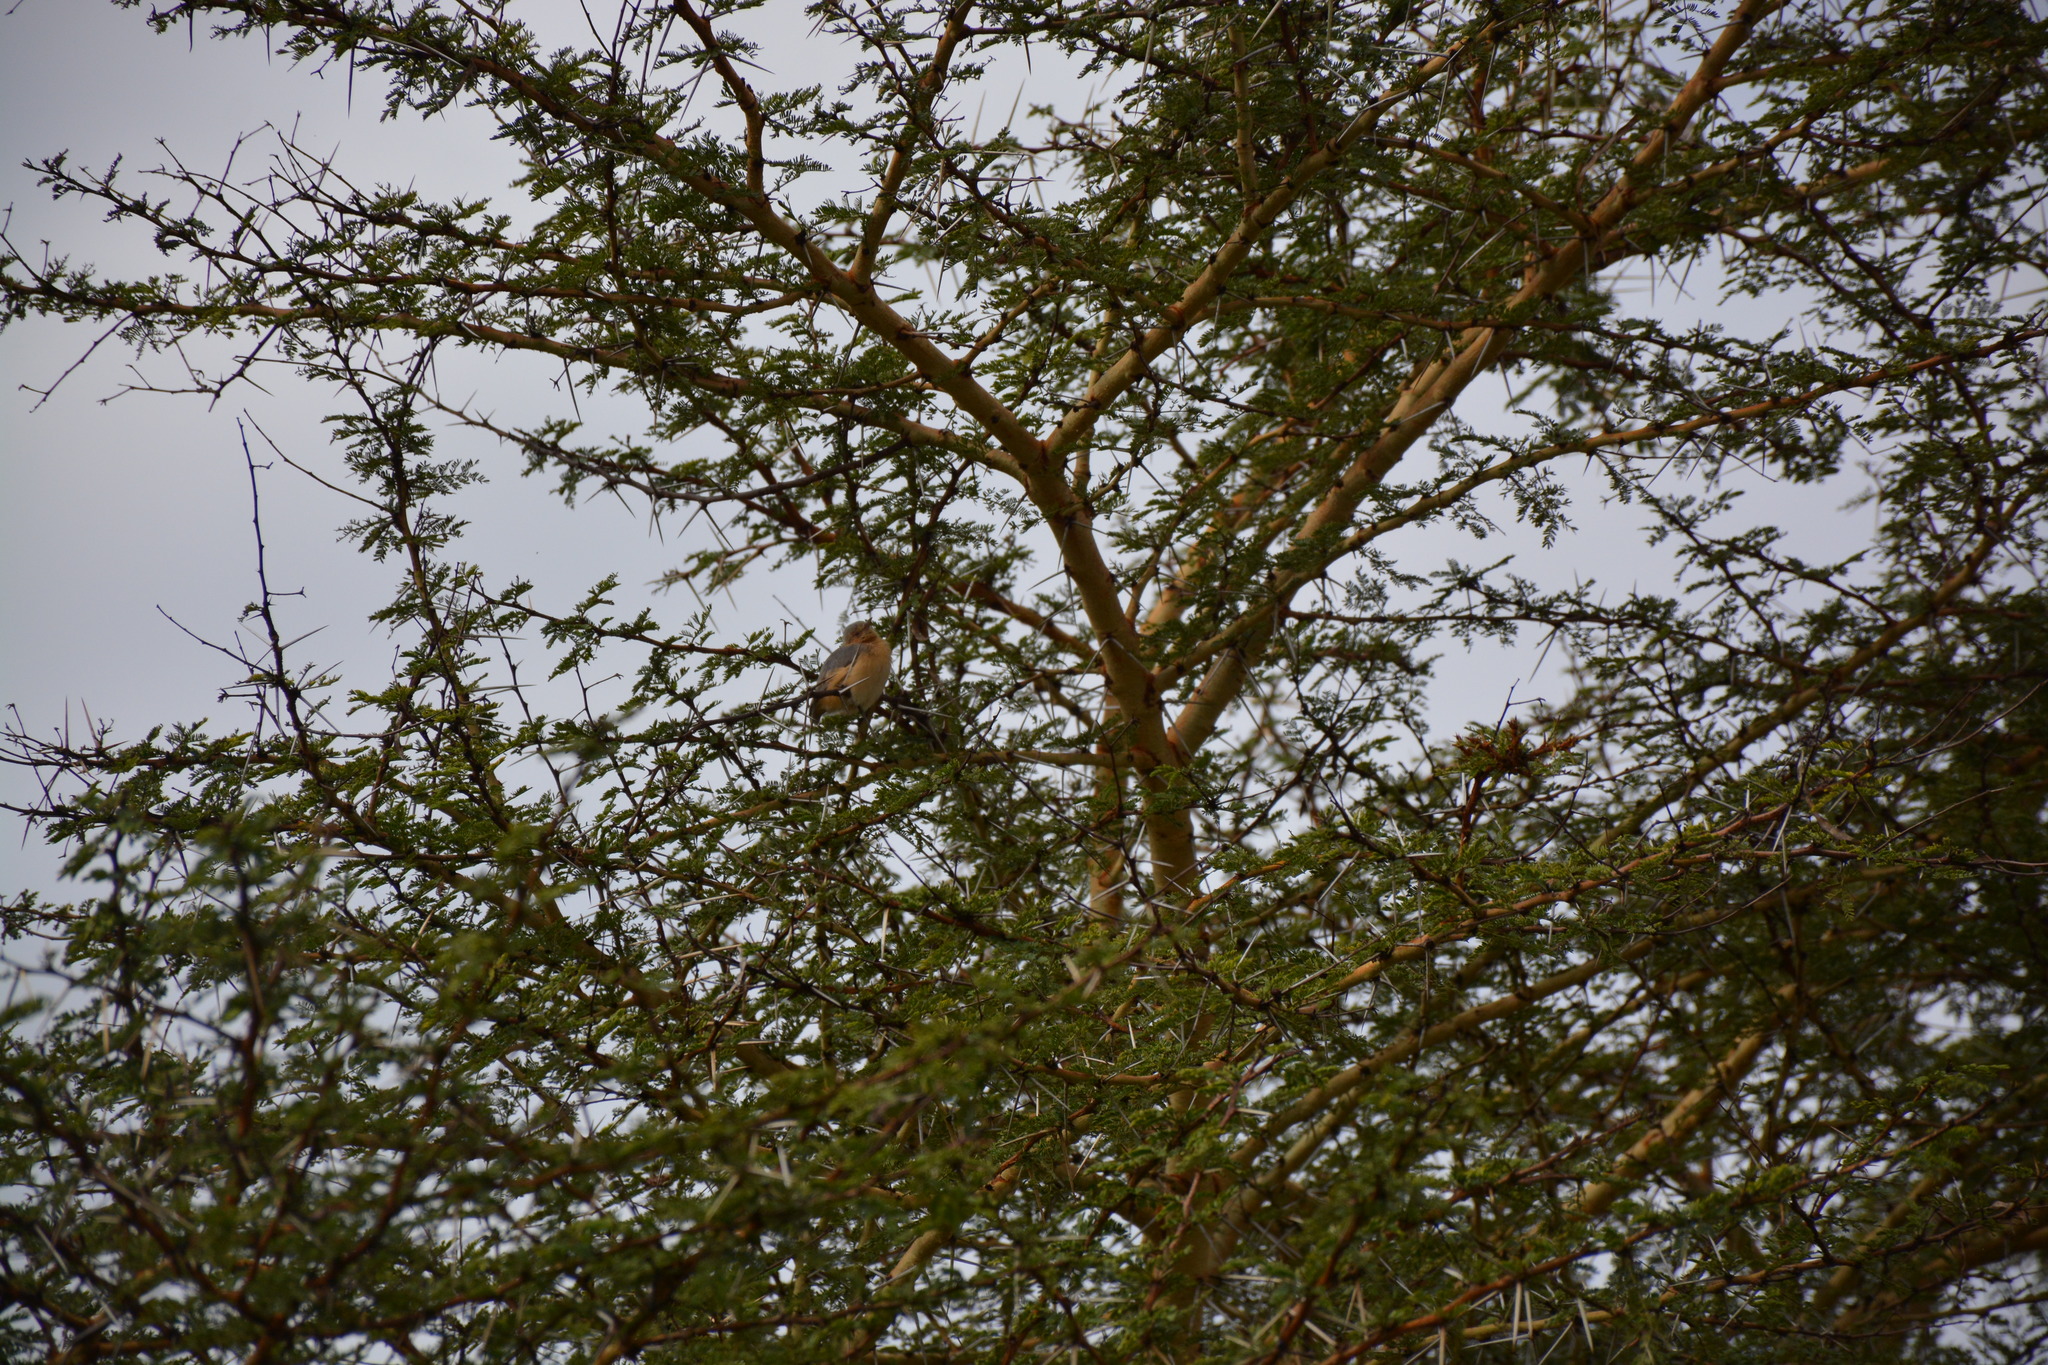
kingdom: Animalia
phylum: Chordata
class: Aves
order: Passeriformes
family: Macrosphenidae
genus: Sylvietta
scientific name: Sylvietta whytii
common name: Red-faced crombec
